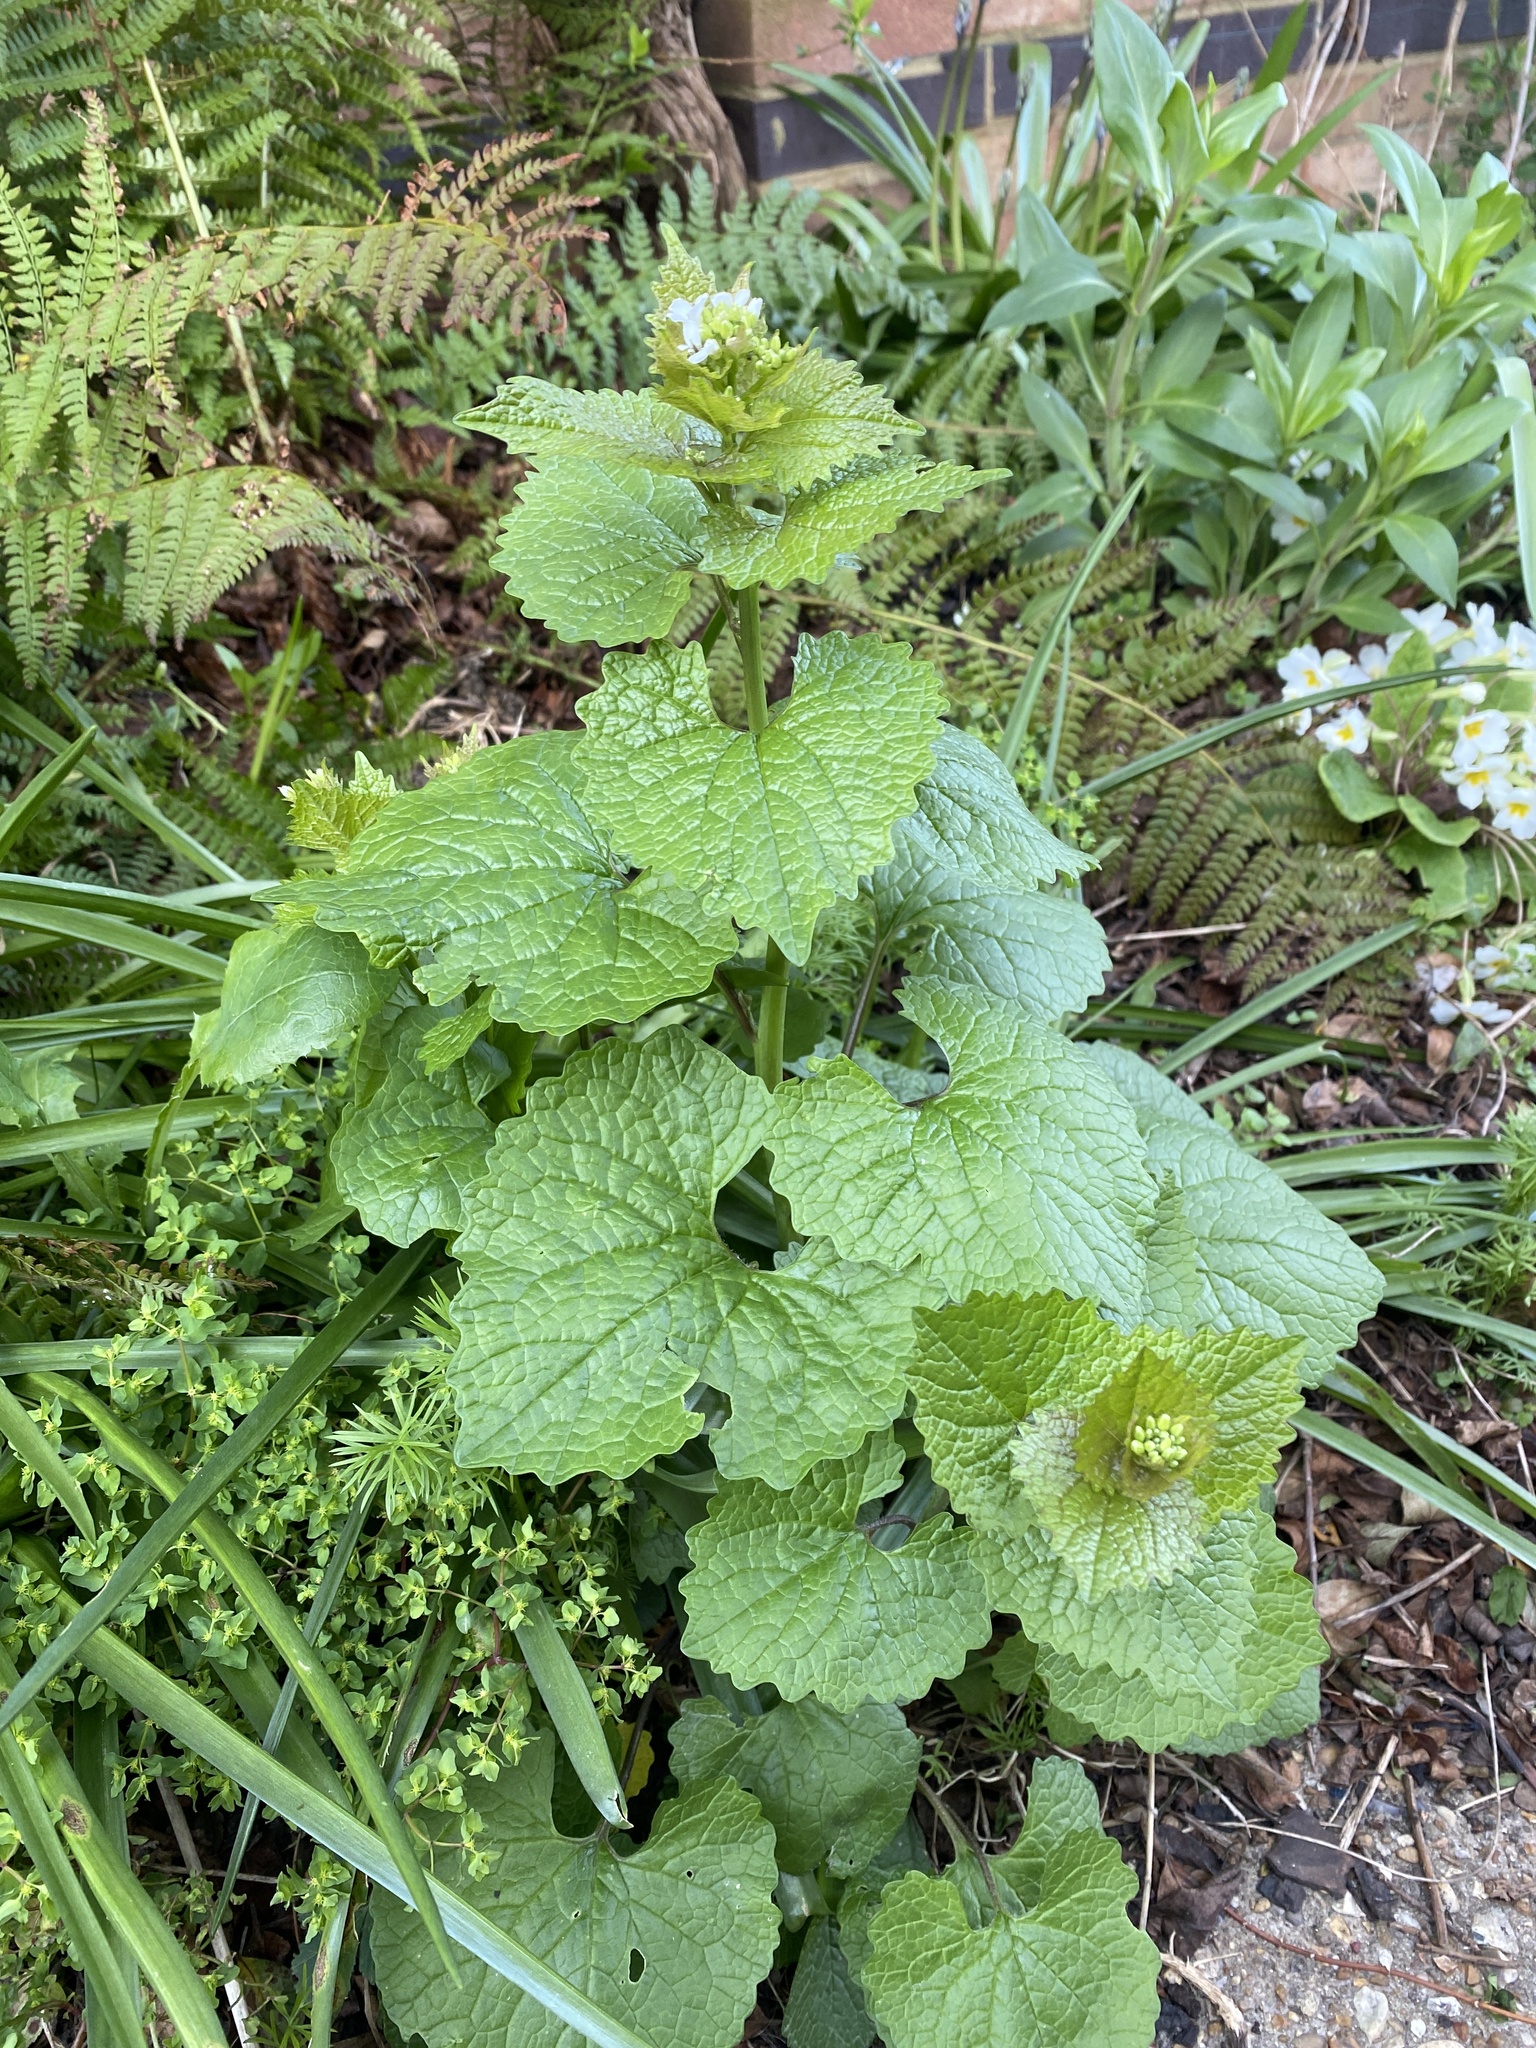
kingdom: Plantae
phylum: Tracheophyta
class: Magnoliopsida
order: Brassicales
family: Brassicaceae
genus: Alliaria
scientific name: Alliaria petiolata
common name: Garlic mustard
